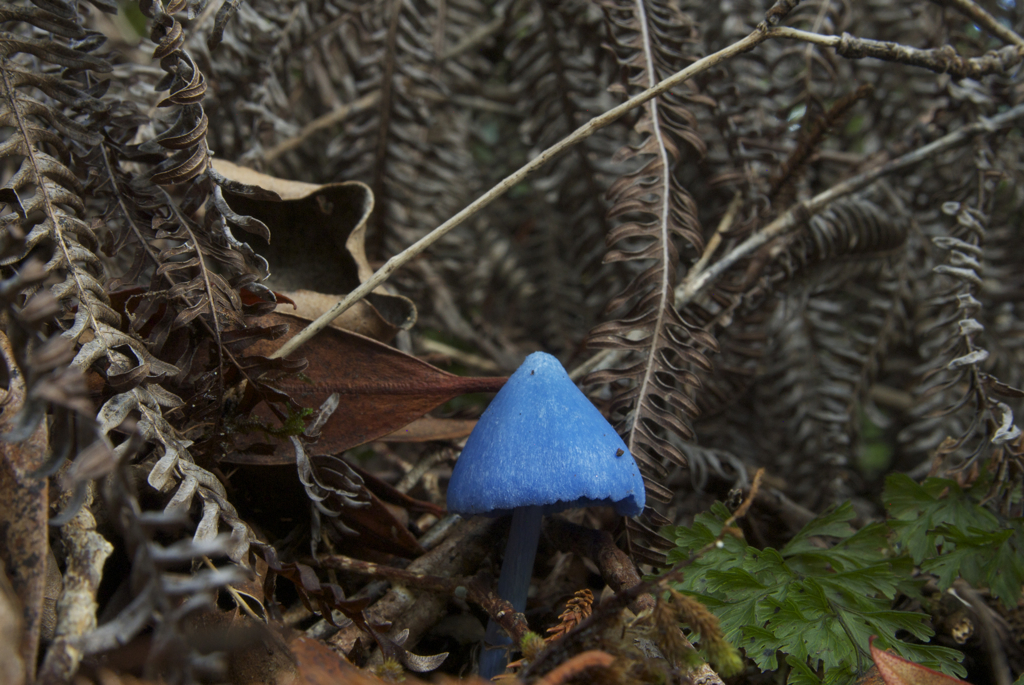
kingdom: Fungi
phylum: Basidiomycota
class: Agaricomycetes
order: Agaricales
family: Entolomataceae
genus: Entoloma
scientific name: Entoloma hochstetteri
